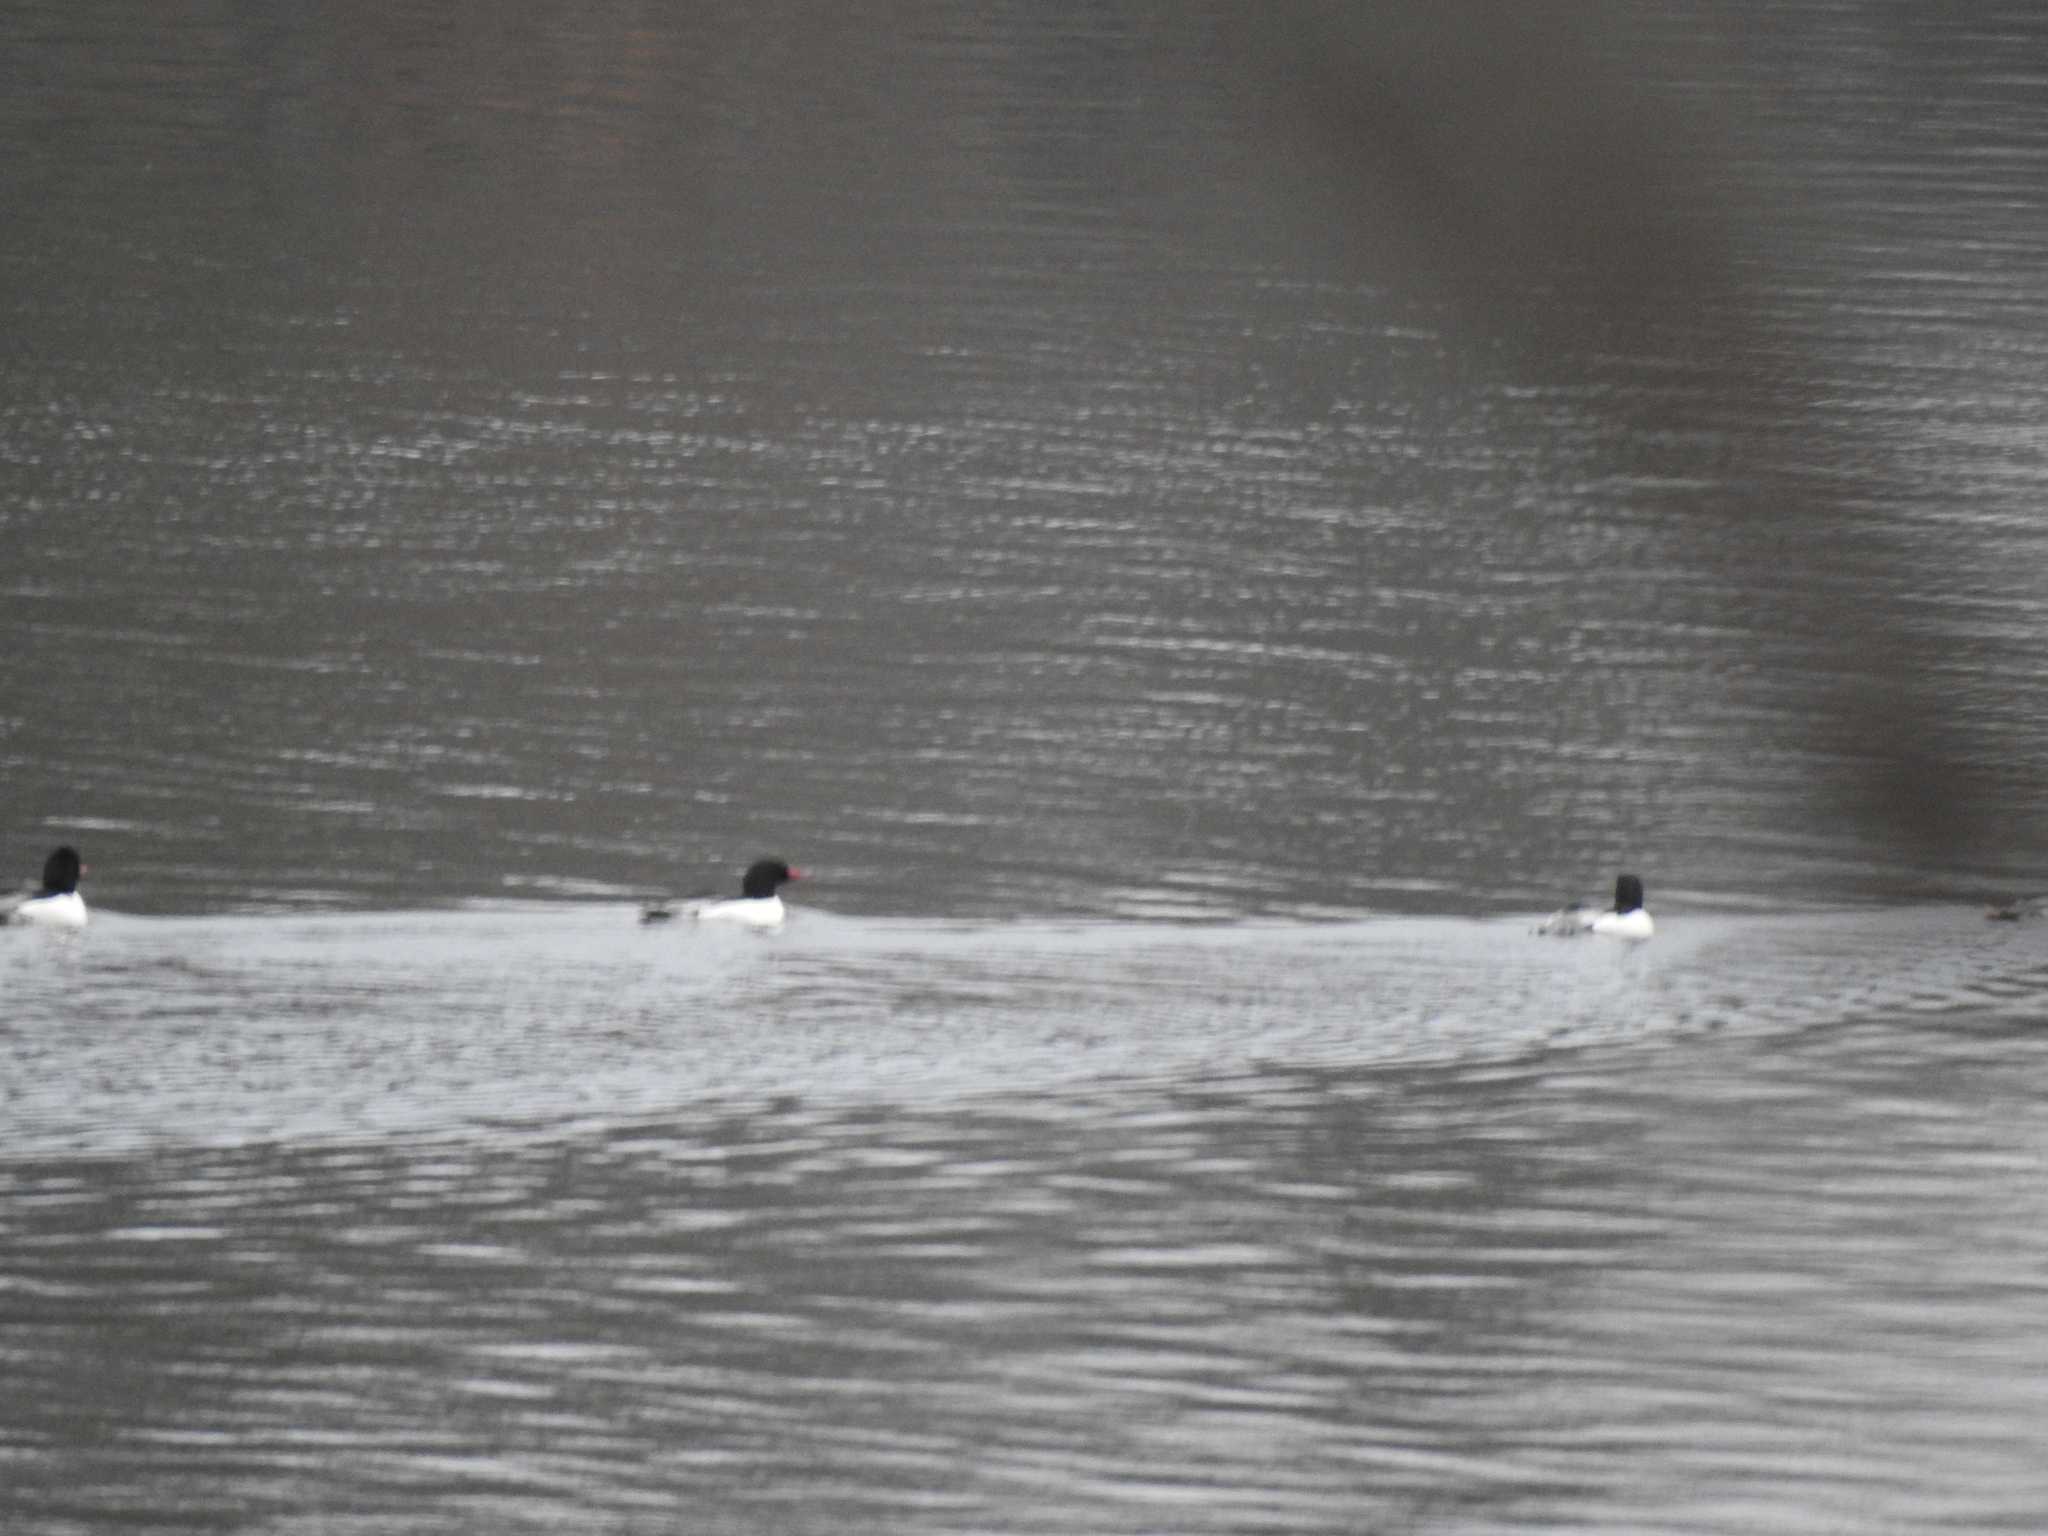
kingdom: Animalia
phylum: Chordata
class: Aves
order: Anseriformes
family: Anatidae
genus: Mergus
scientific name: Mergus merganser
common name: Common merganser
